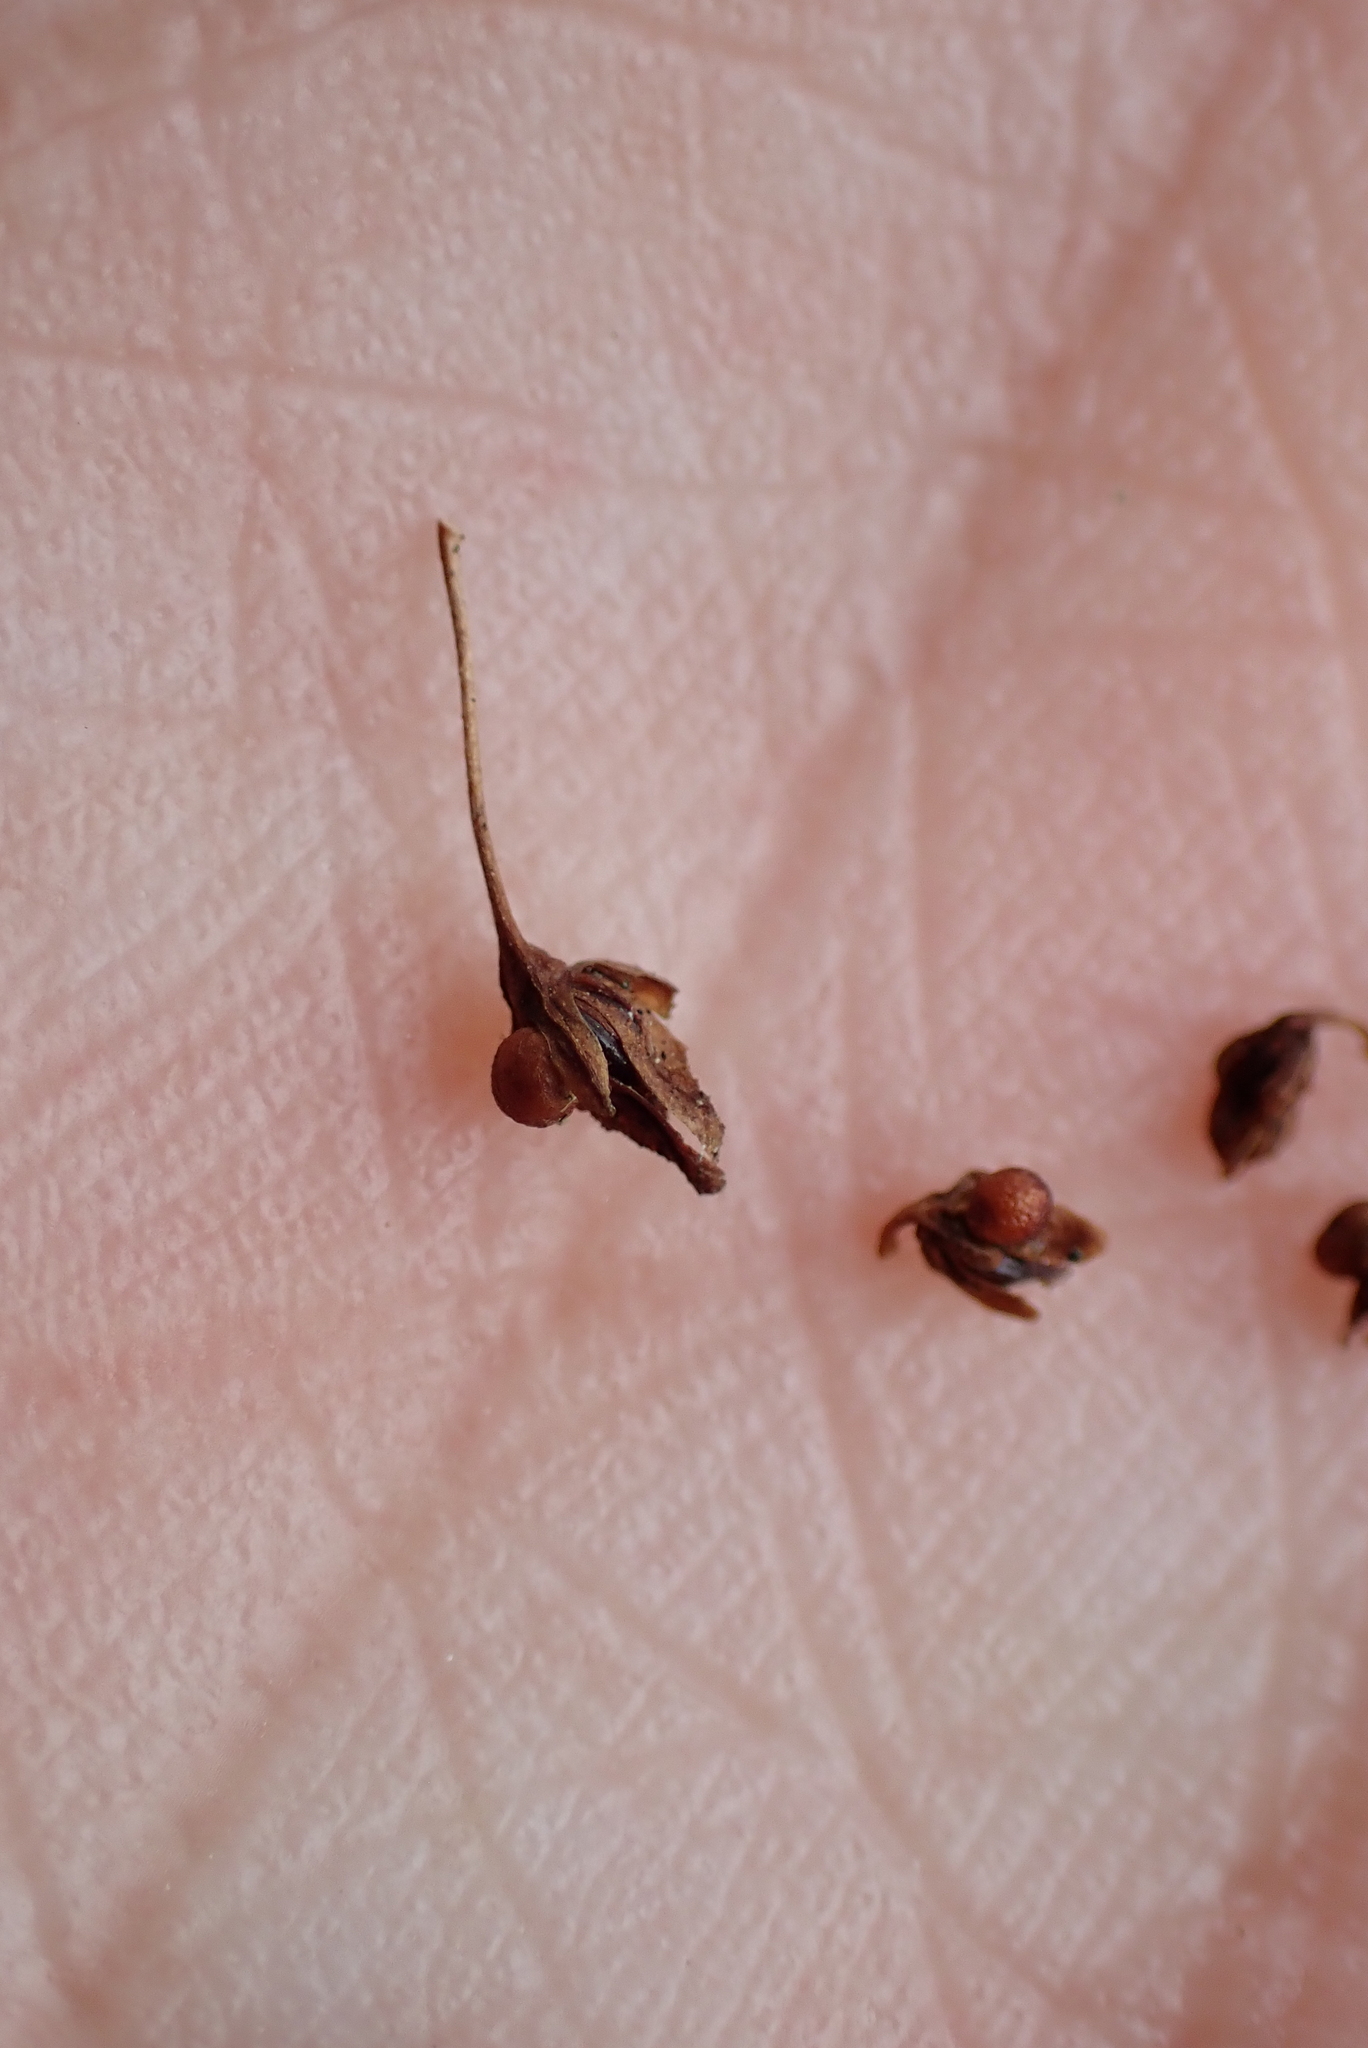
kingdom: Plantae
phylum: Tracheophyta
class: Magnoliopsida
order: Caryophyllales
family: Polygonaceae
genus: Rumex
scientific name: Rumex sanguineus
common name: Wood dock
